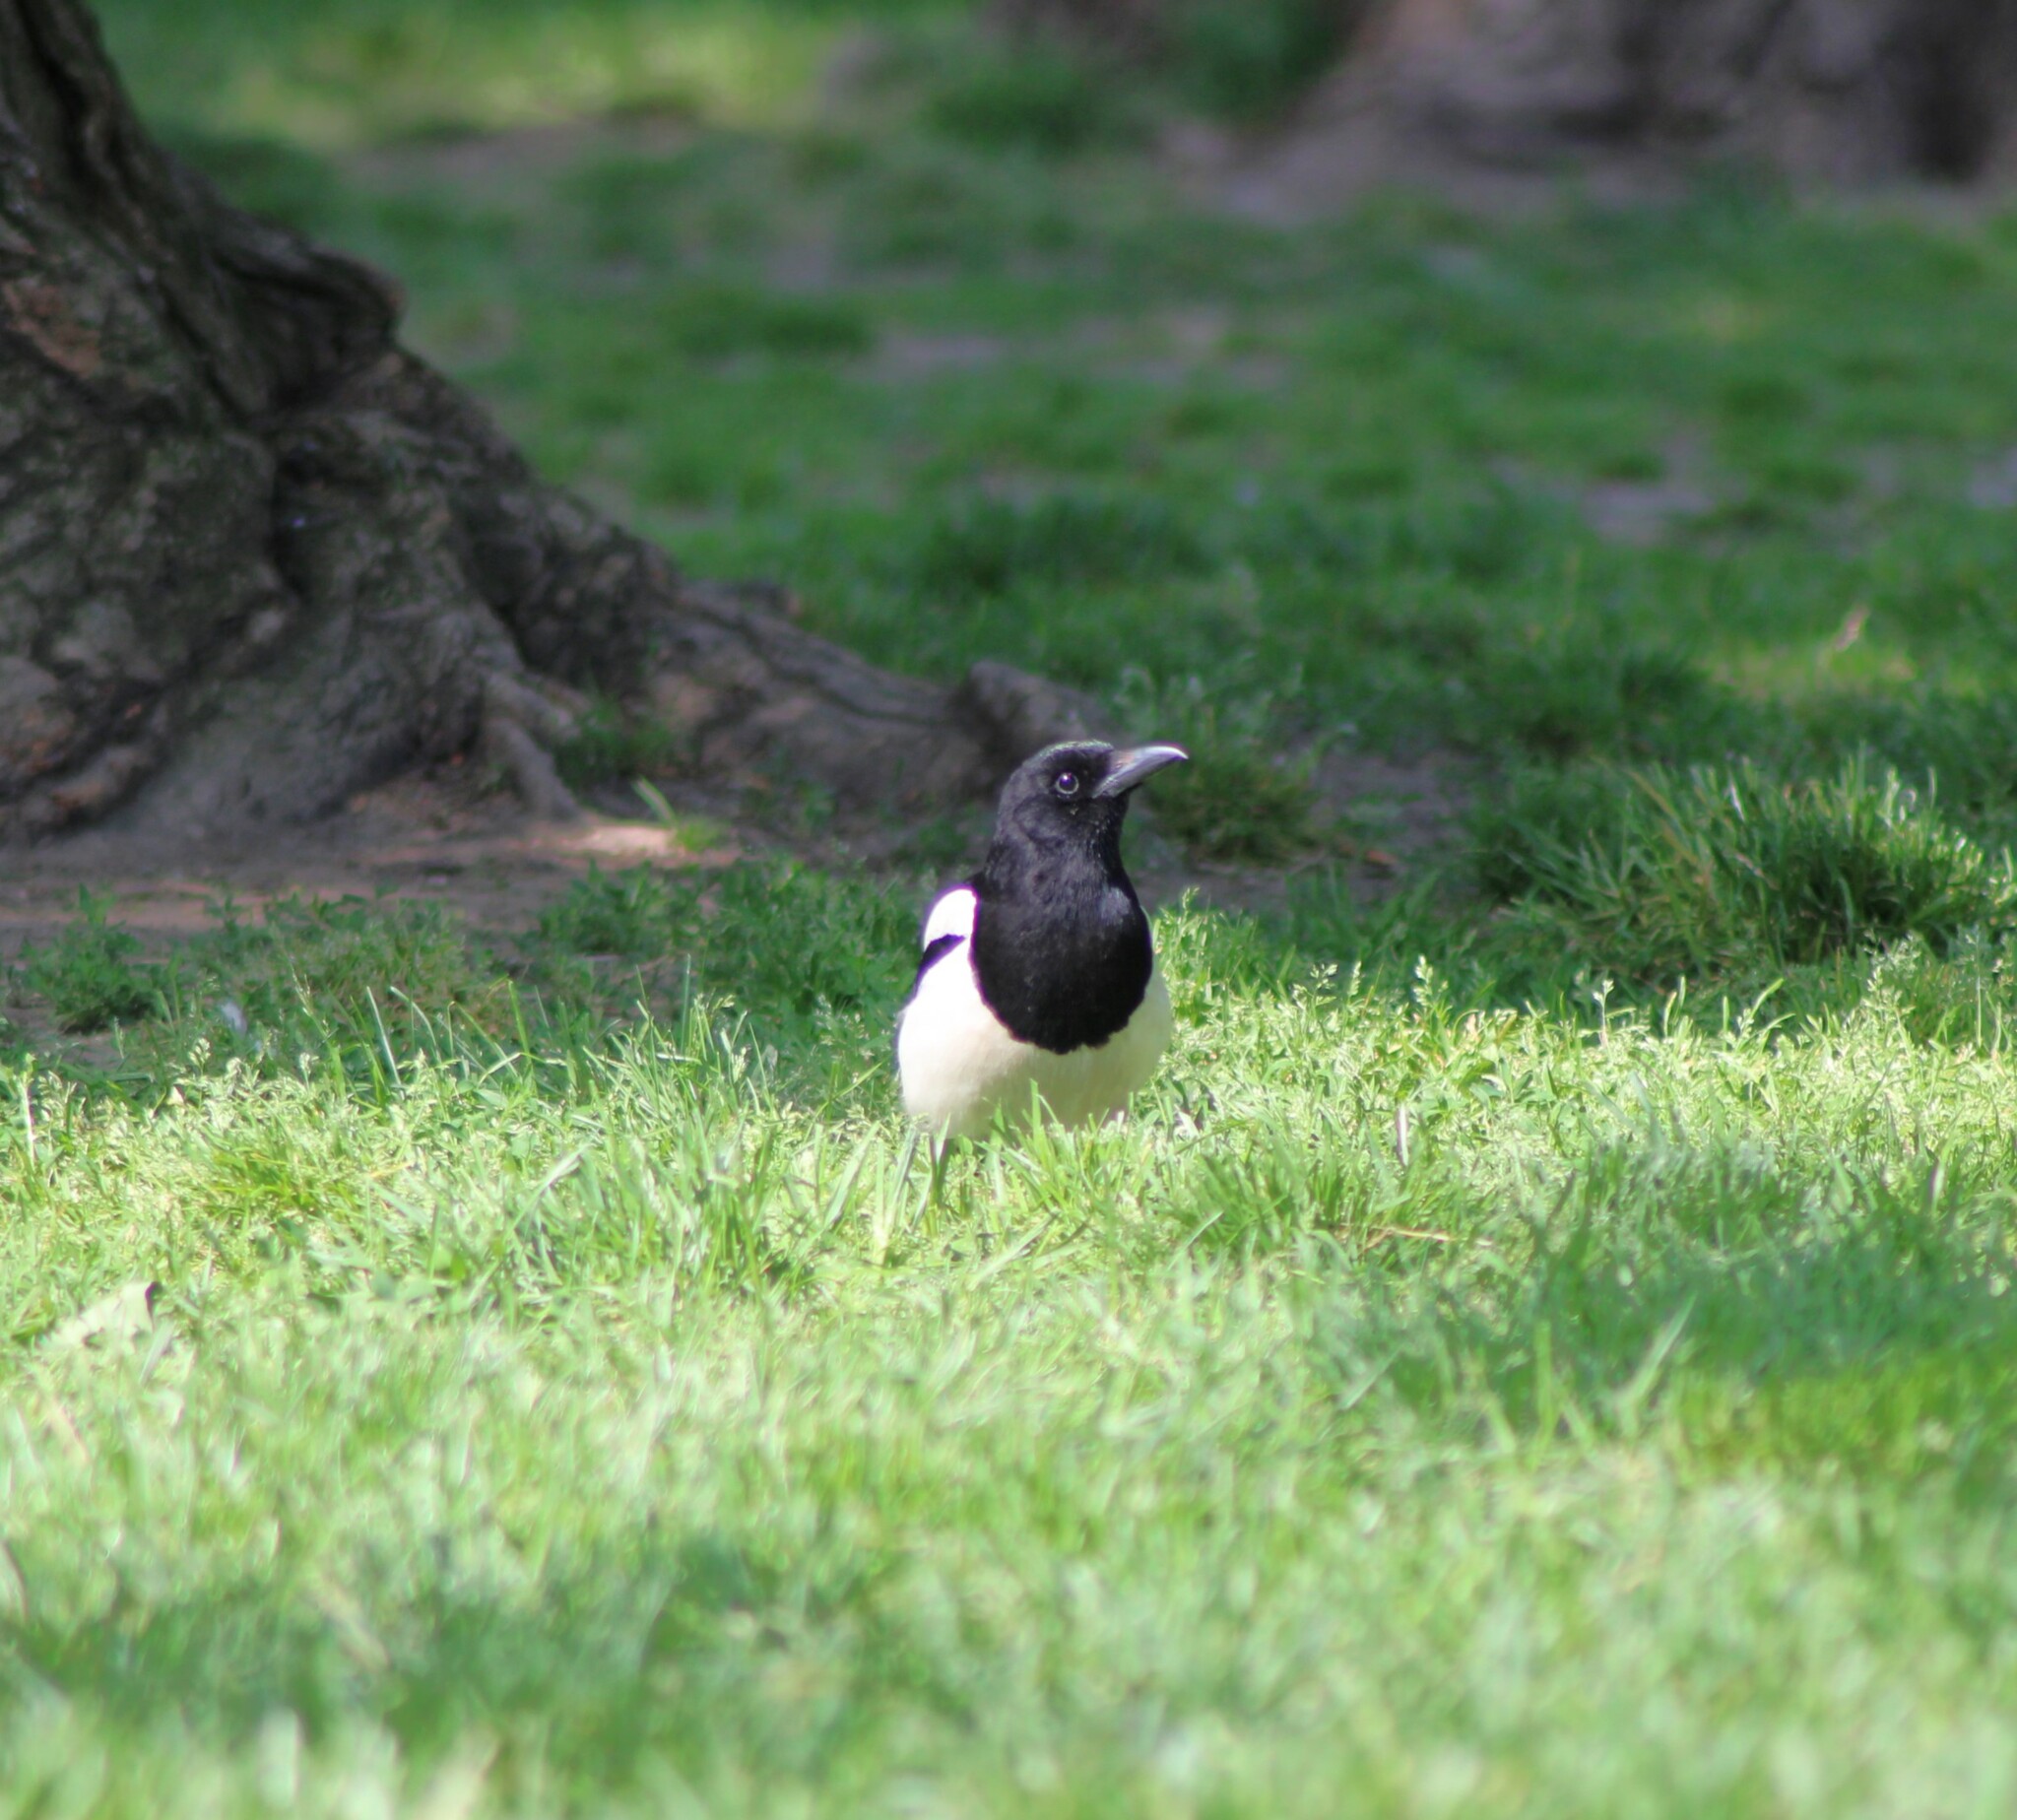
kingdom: Animalia
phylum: Chordata
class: Aves
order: Passeriformes
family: Corvidae
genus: Pica
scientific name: Pica pica
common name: Eurasian magpie
